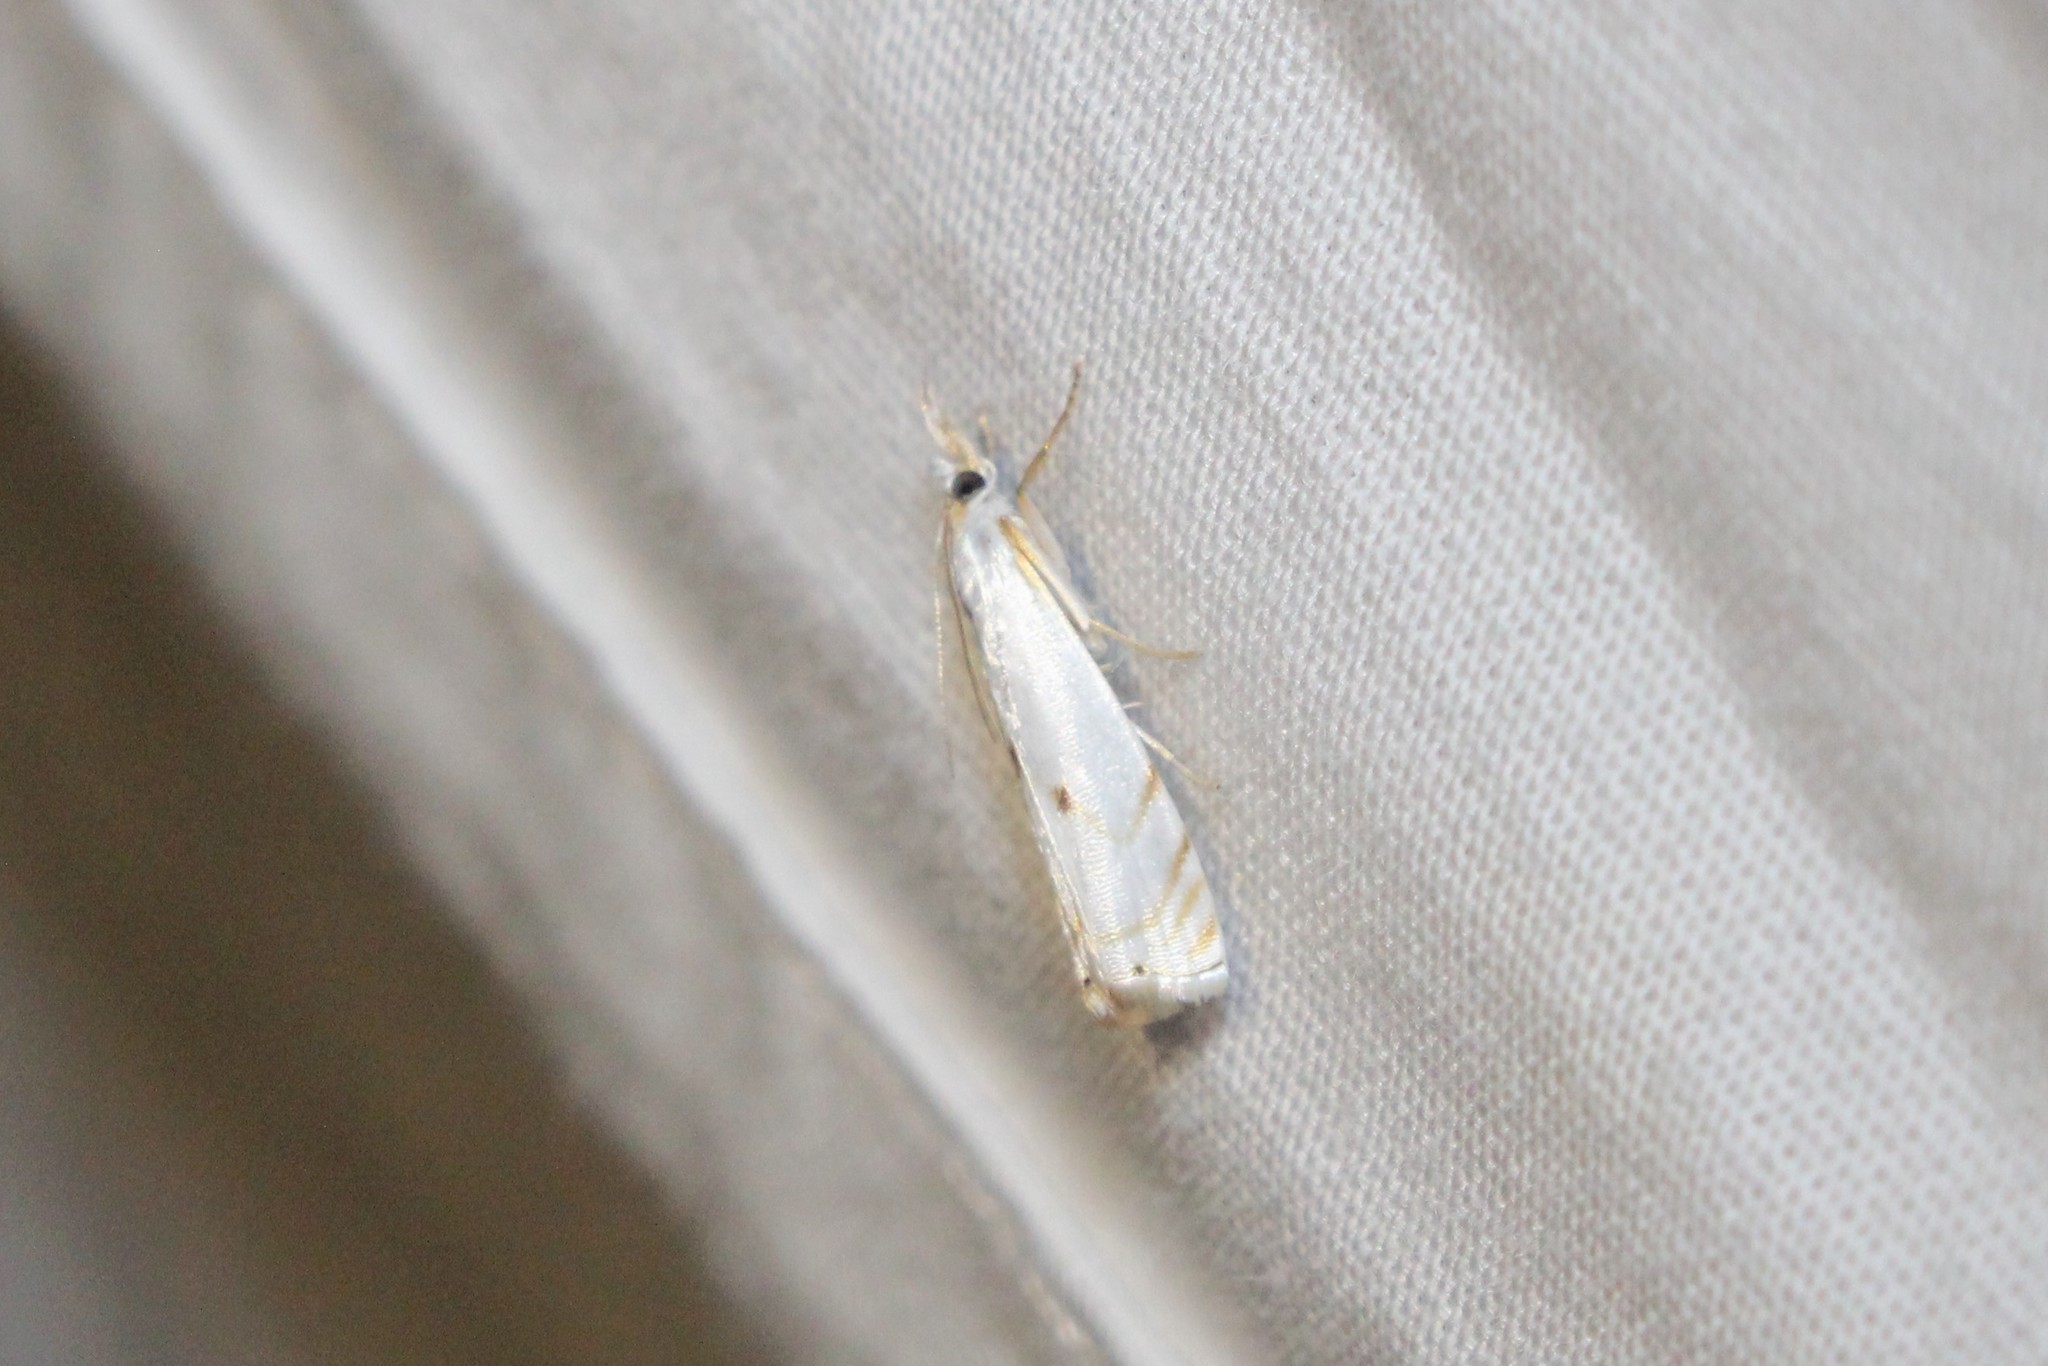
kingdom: Animalia
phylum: Arthropoda
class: Insecta
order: Lepidoptera
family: Crambidae
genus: Microcrambus
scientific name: Microcrambus biguttellus
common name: Gold-stripe grass-veneer moth
